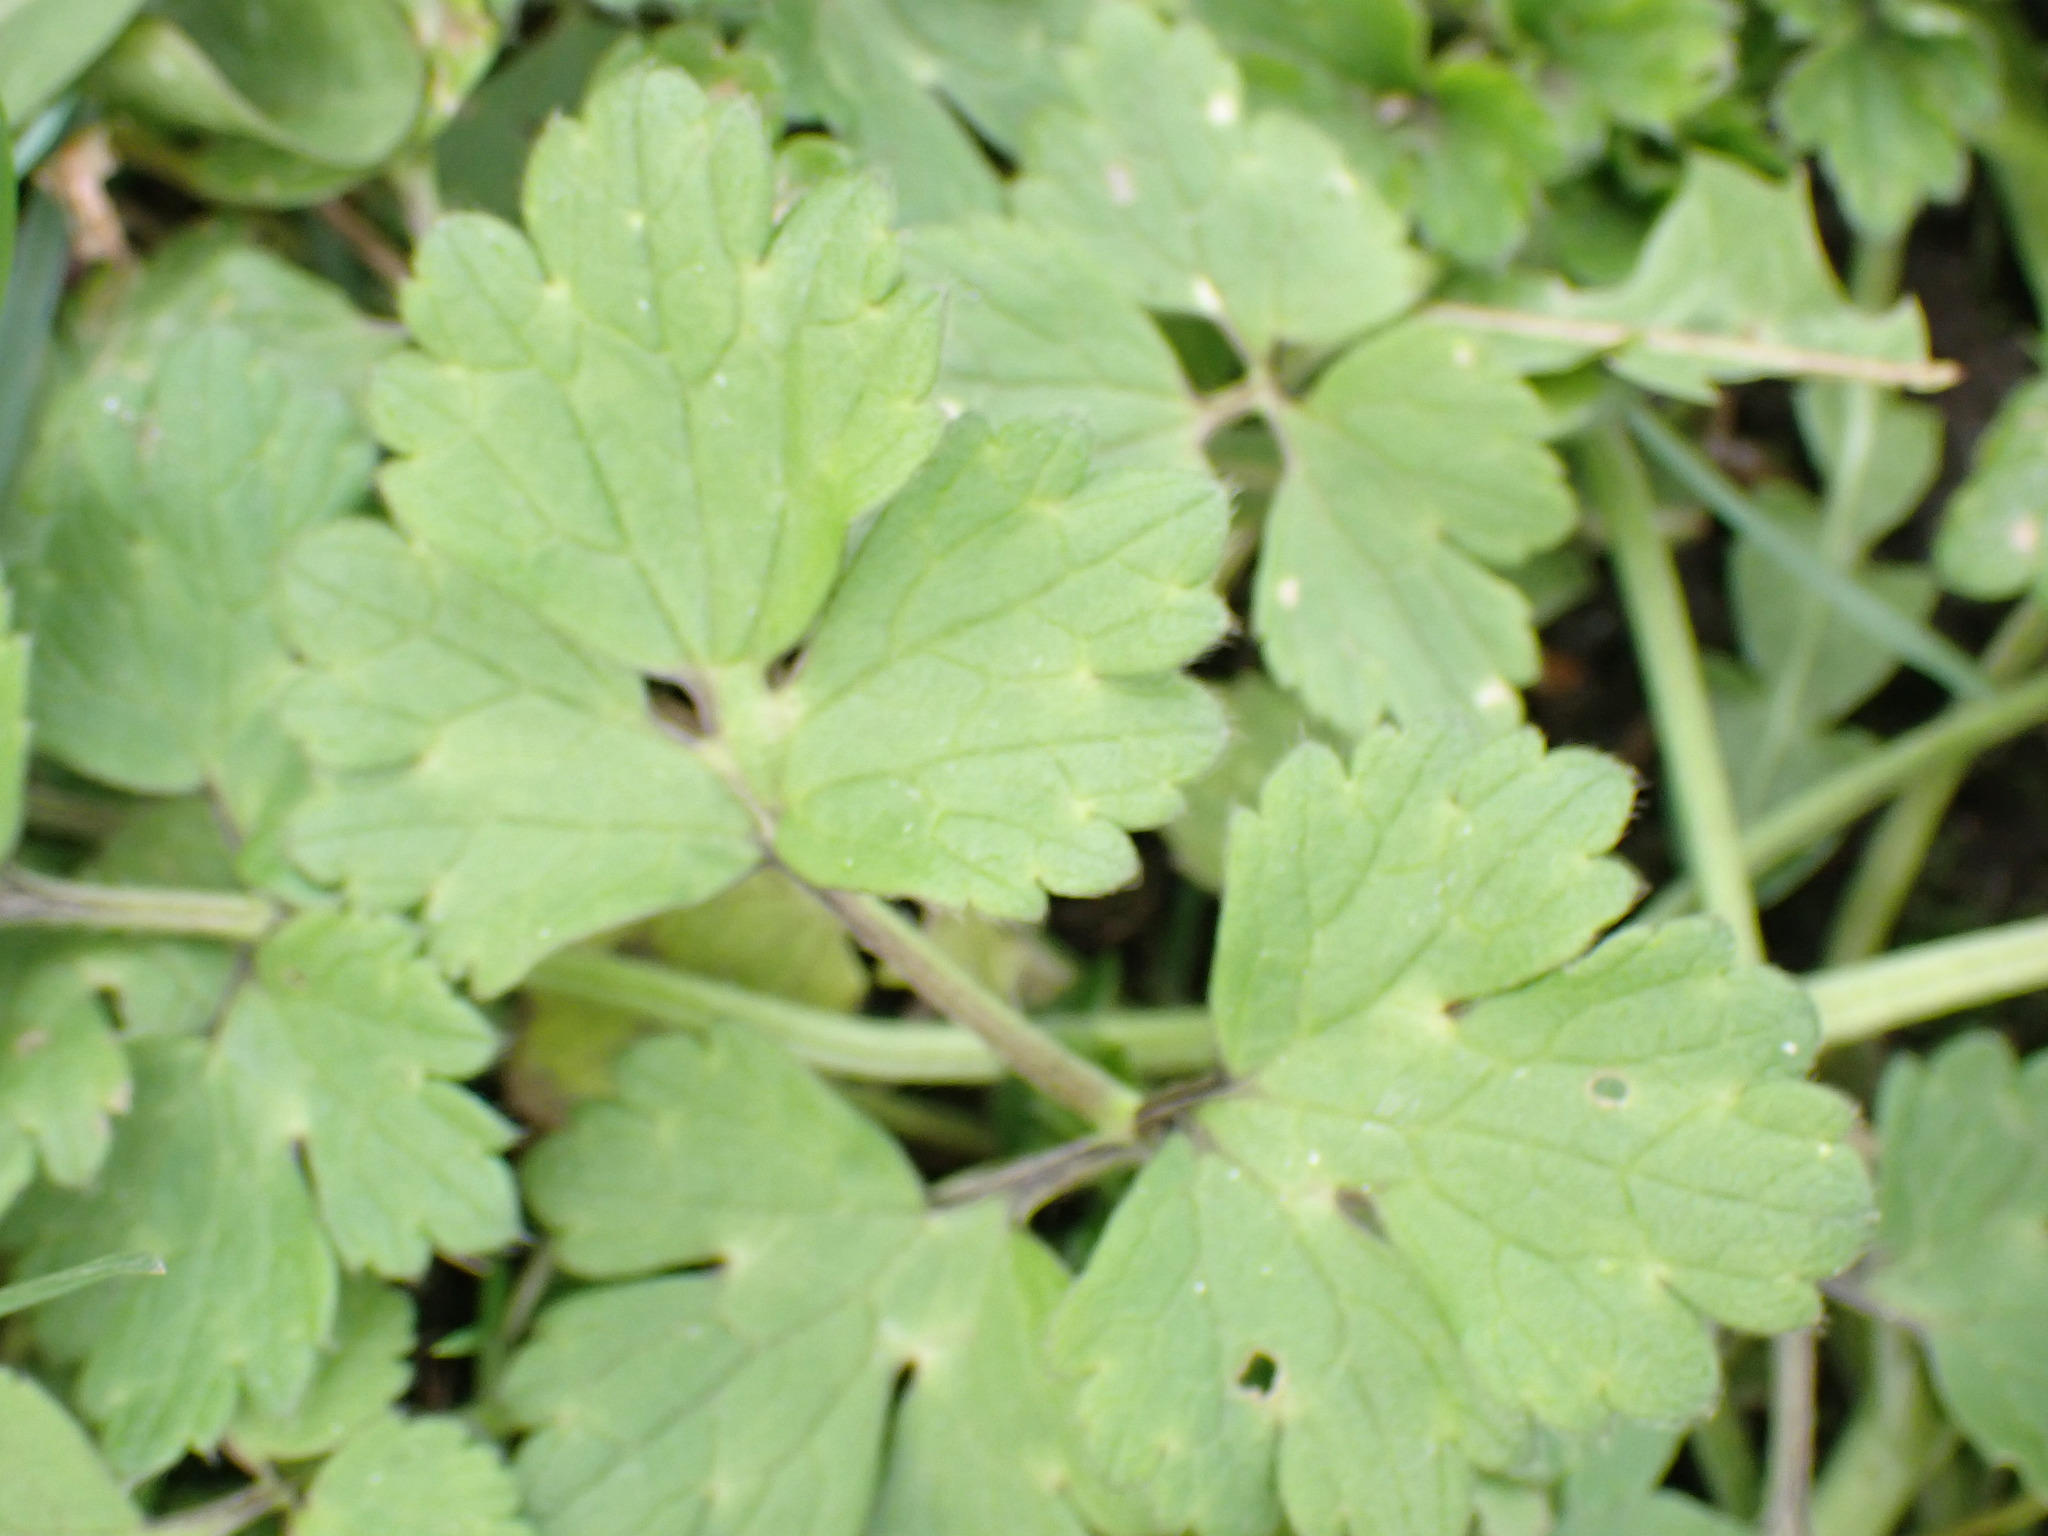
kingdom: Plantae
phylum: Tracheophyta
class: Magnoliopsida
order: Ranunculales
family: Ranunculaceae
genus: Ranunculus
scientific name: Ranunculus repens
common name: Creeping buttercup
